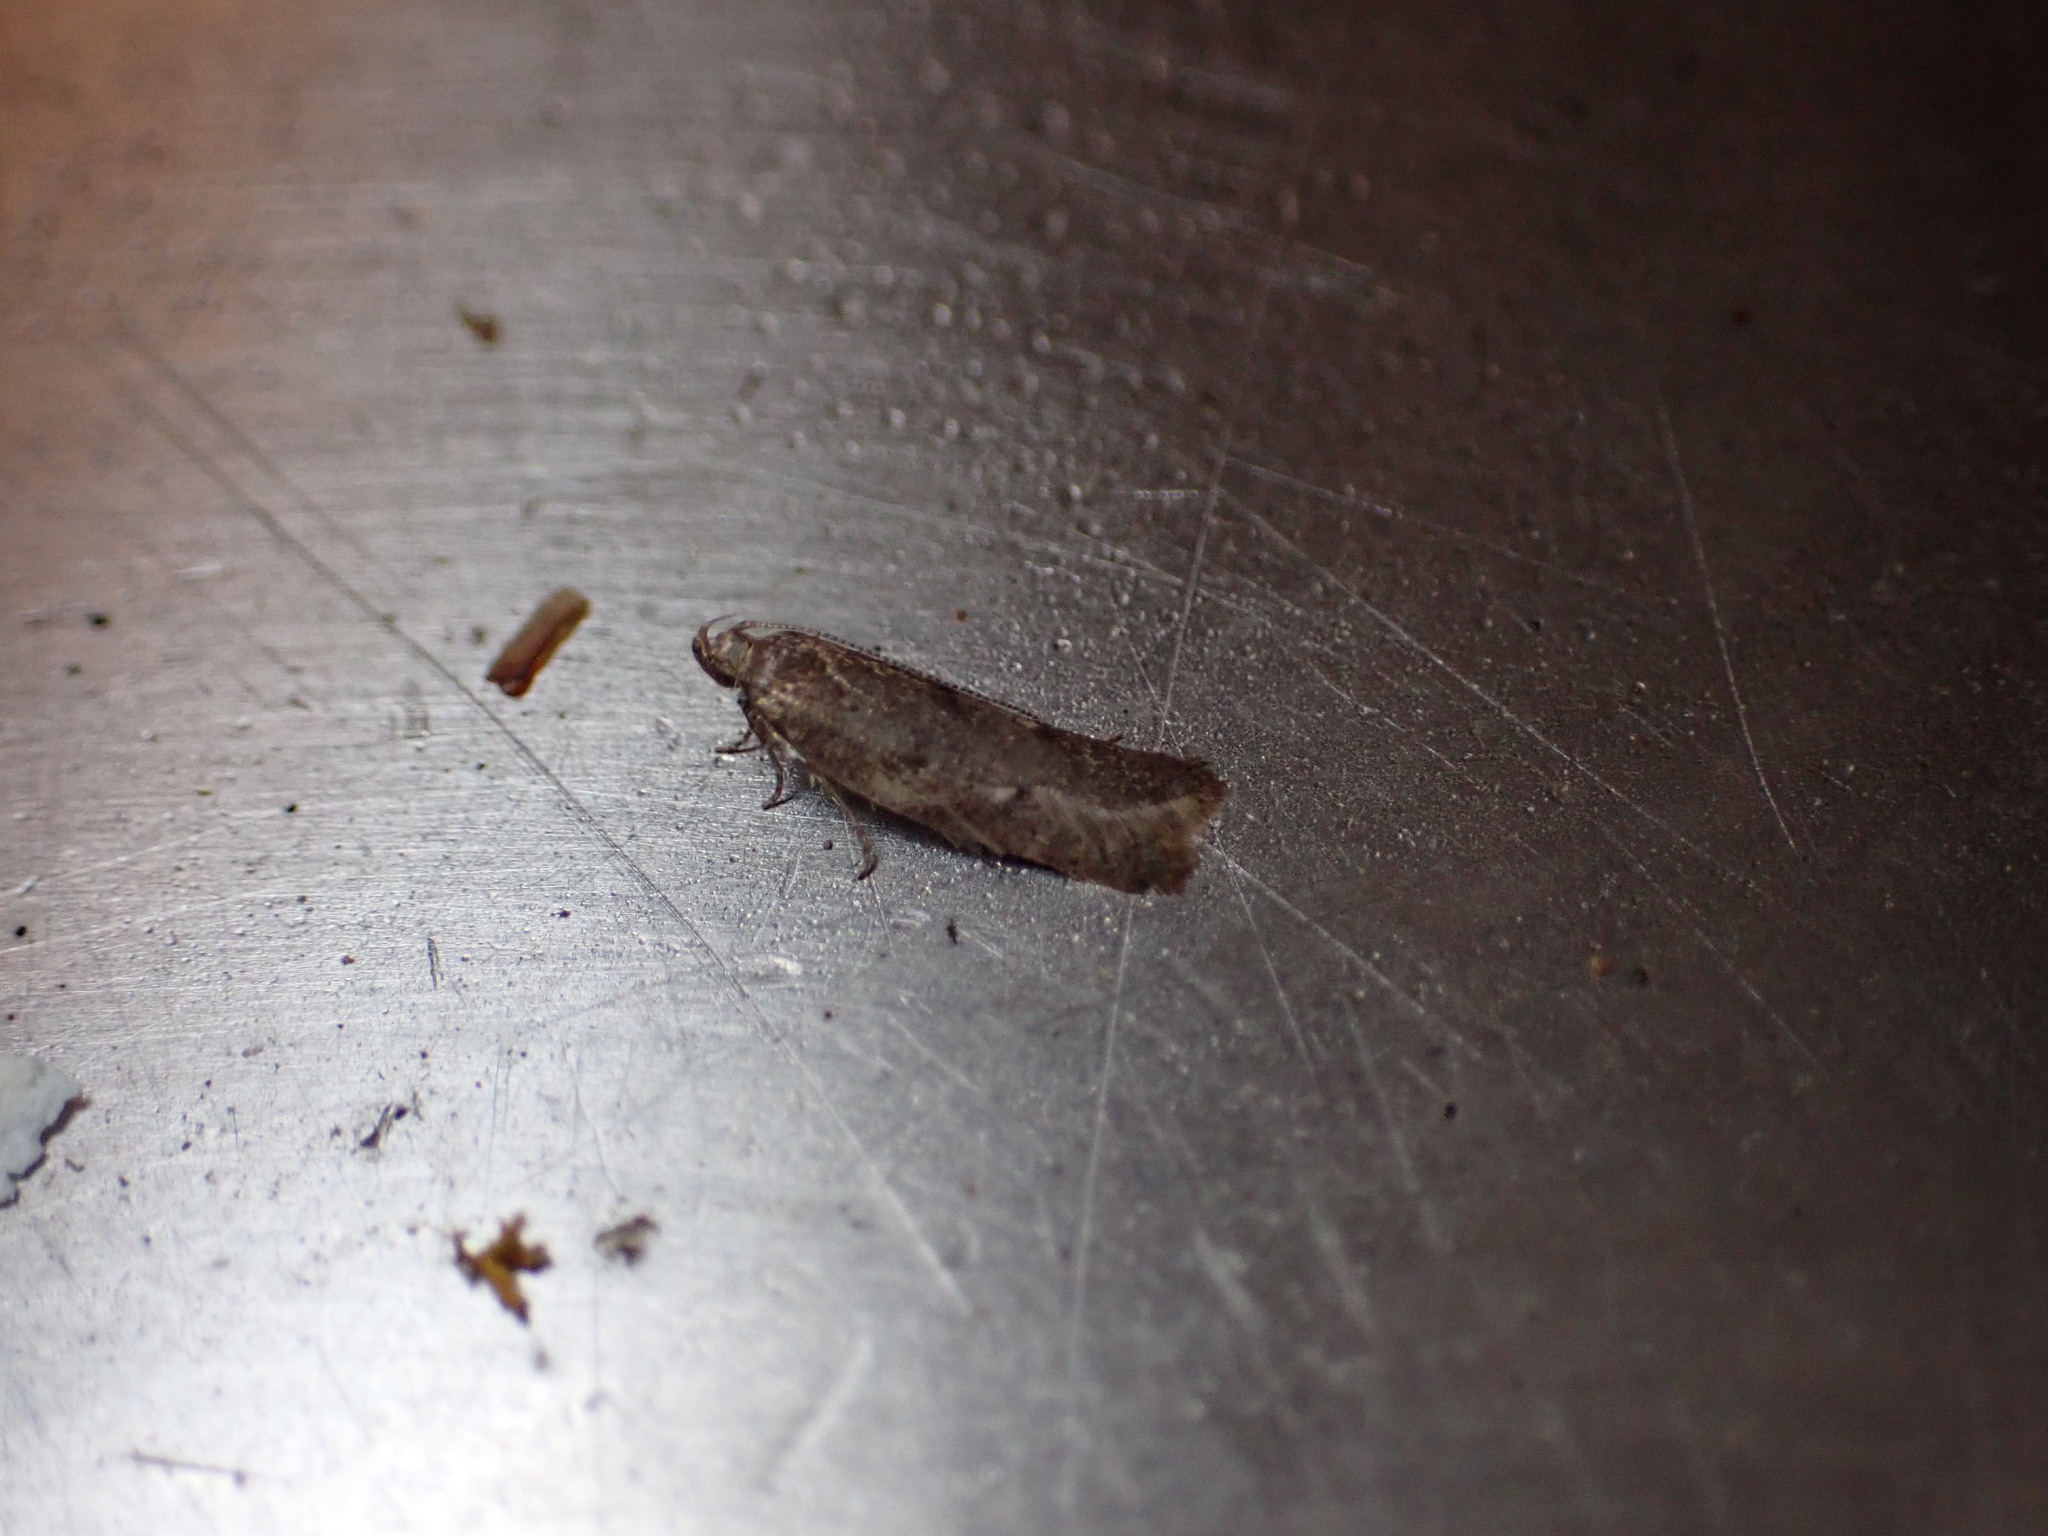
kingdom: Animalia
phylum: Arthropoda
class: Insecta
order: Lepidoptera
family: Oecophoridae
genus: Gymnobathra
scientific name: Gymnobathra tholodella
